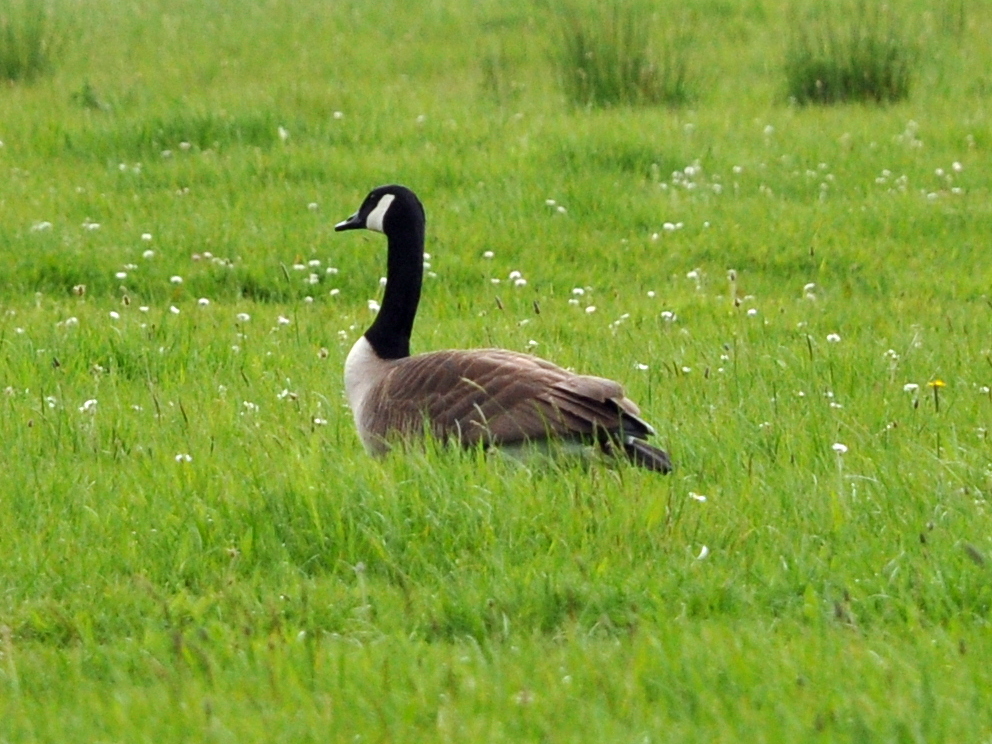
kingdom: Animalia
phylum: Chordata
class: Aves
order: Anseriformes
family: Anatidae
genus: Branta
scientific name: Branta canadensis
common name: Canada goose
